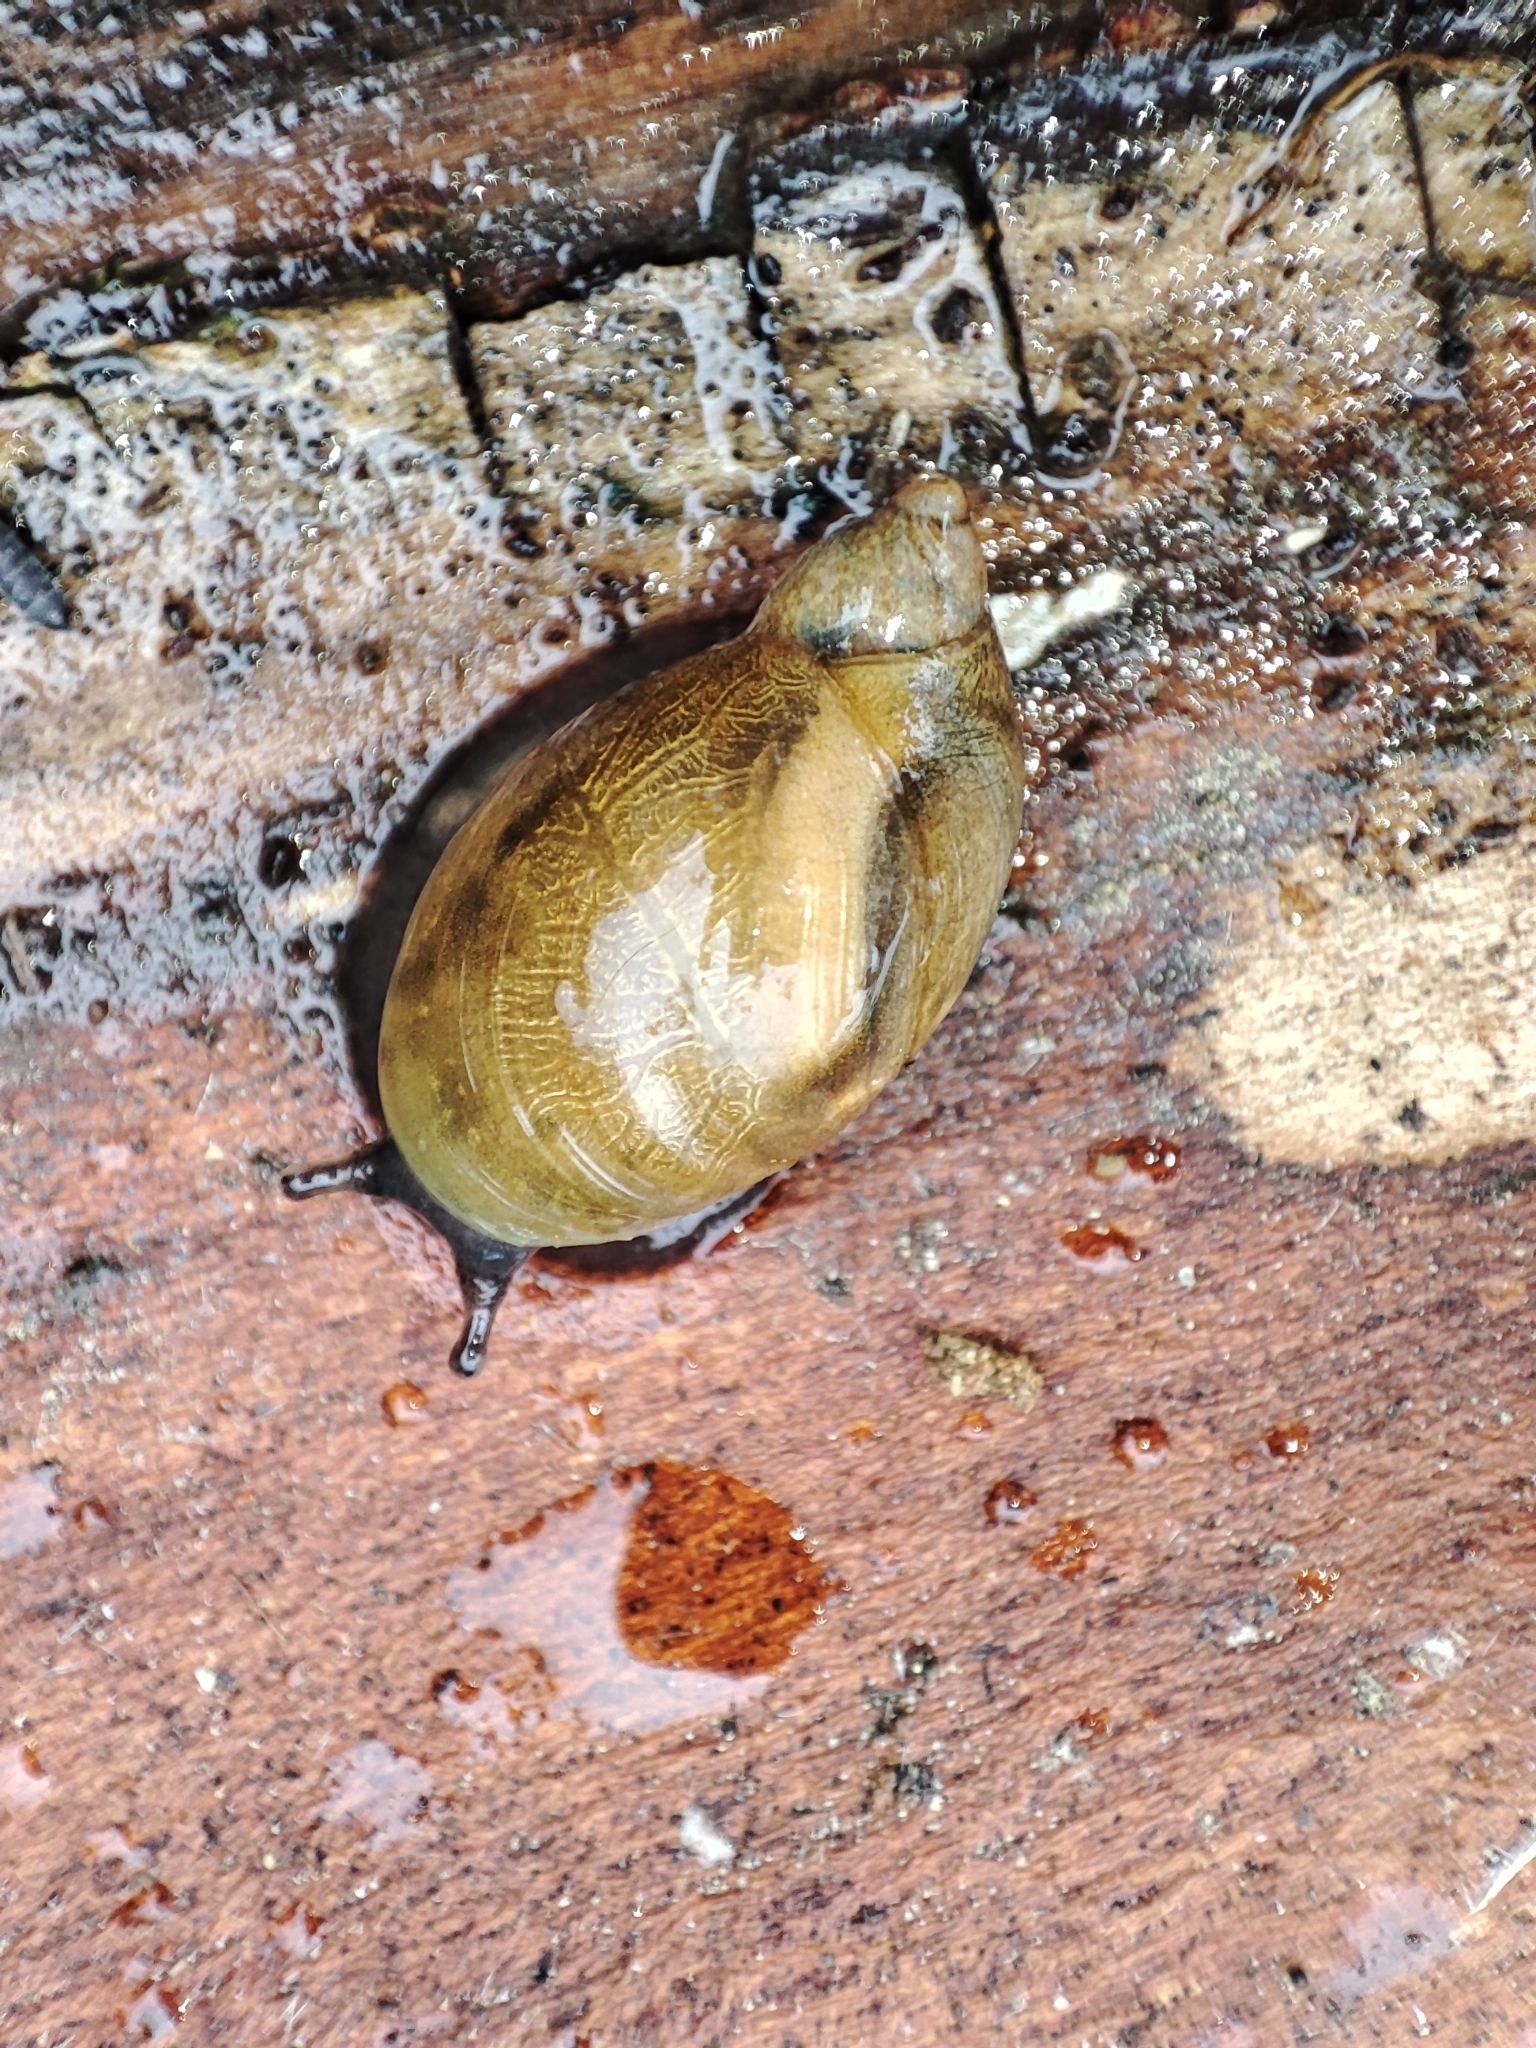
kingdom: Animalia
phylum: Mollusca
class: Gastropoda
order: Stylommatophora
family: Succineidae
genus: Succinea
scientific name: Succinea putris
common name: European ambersnail
